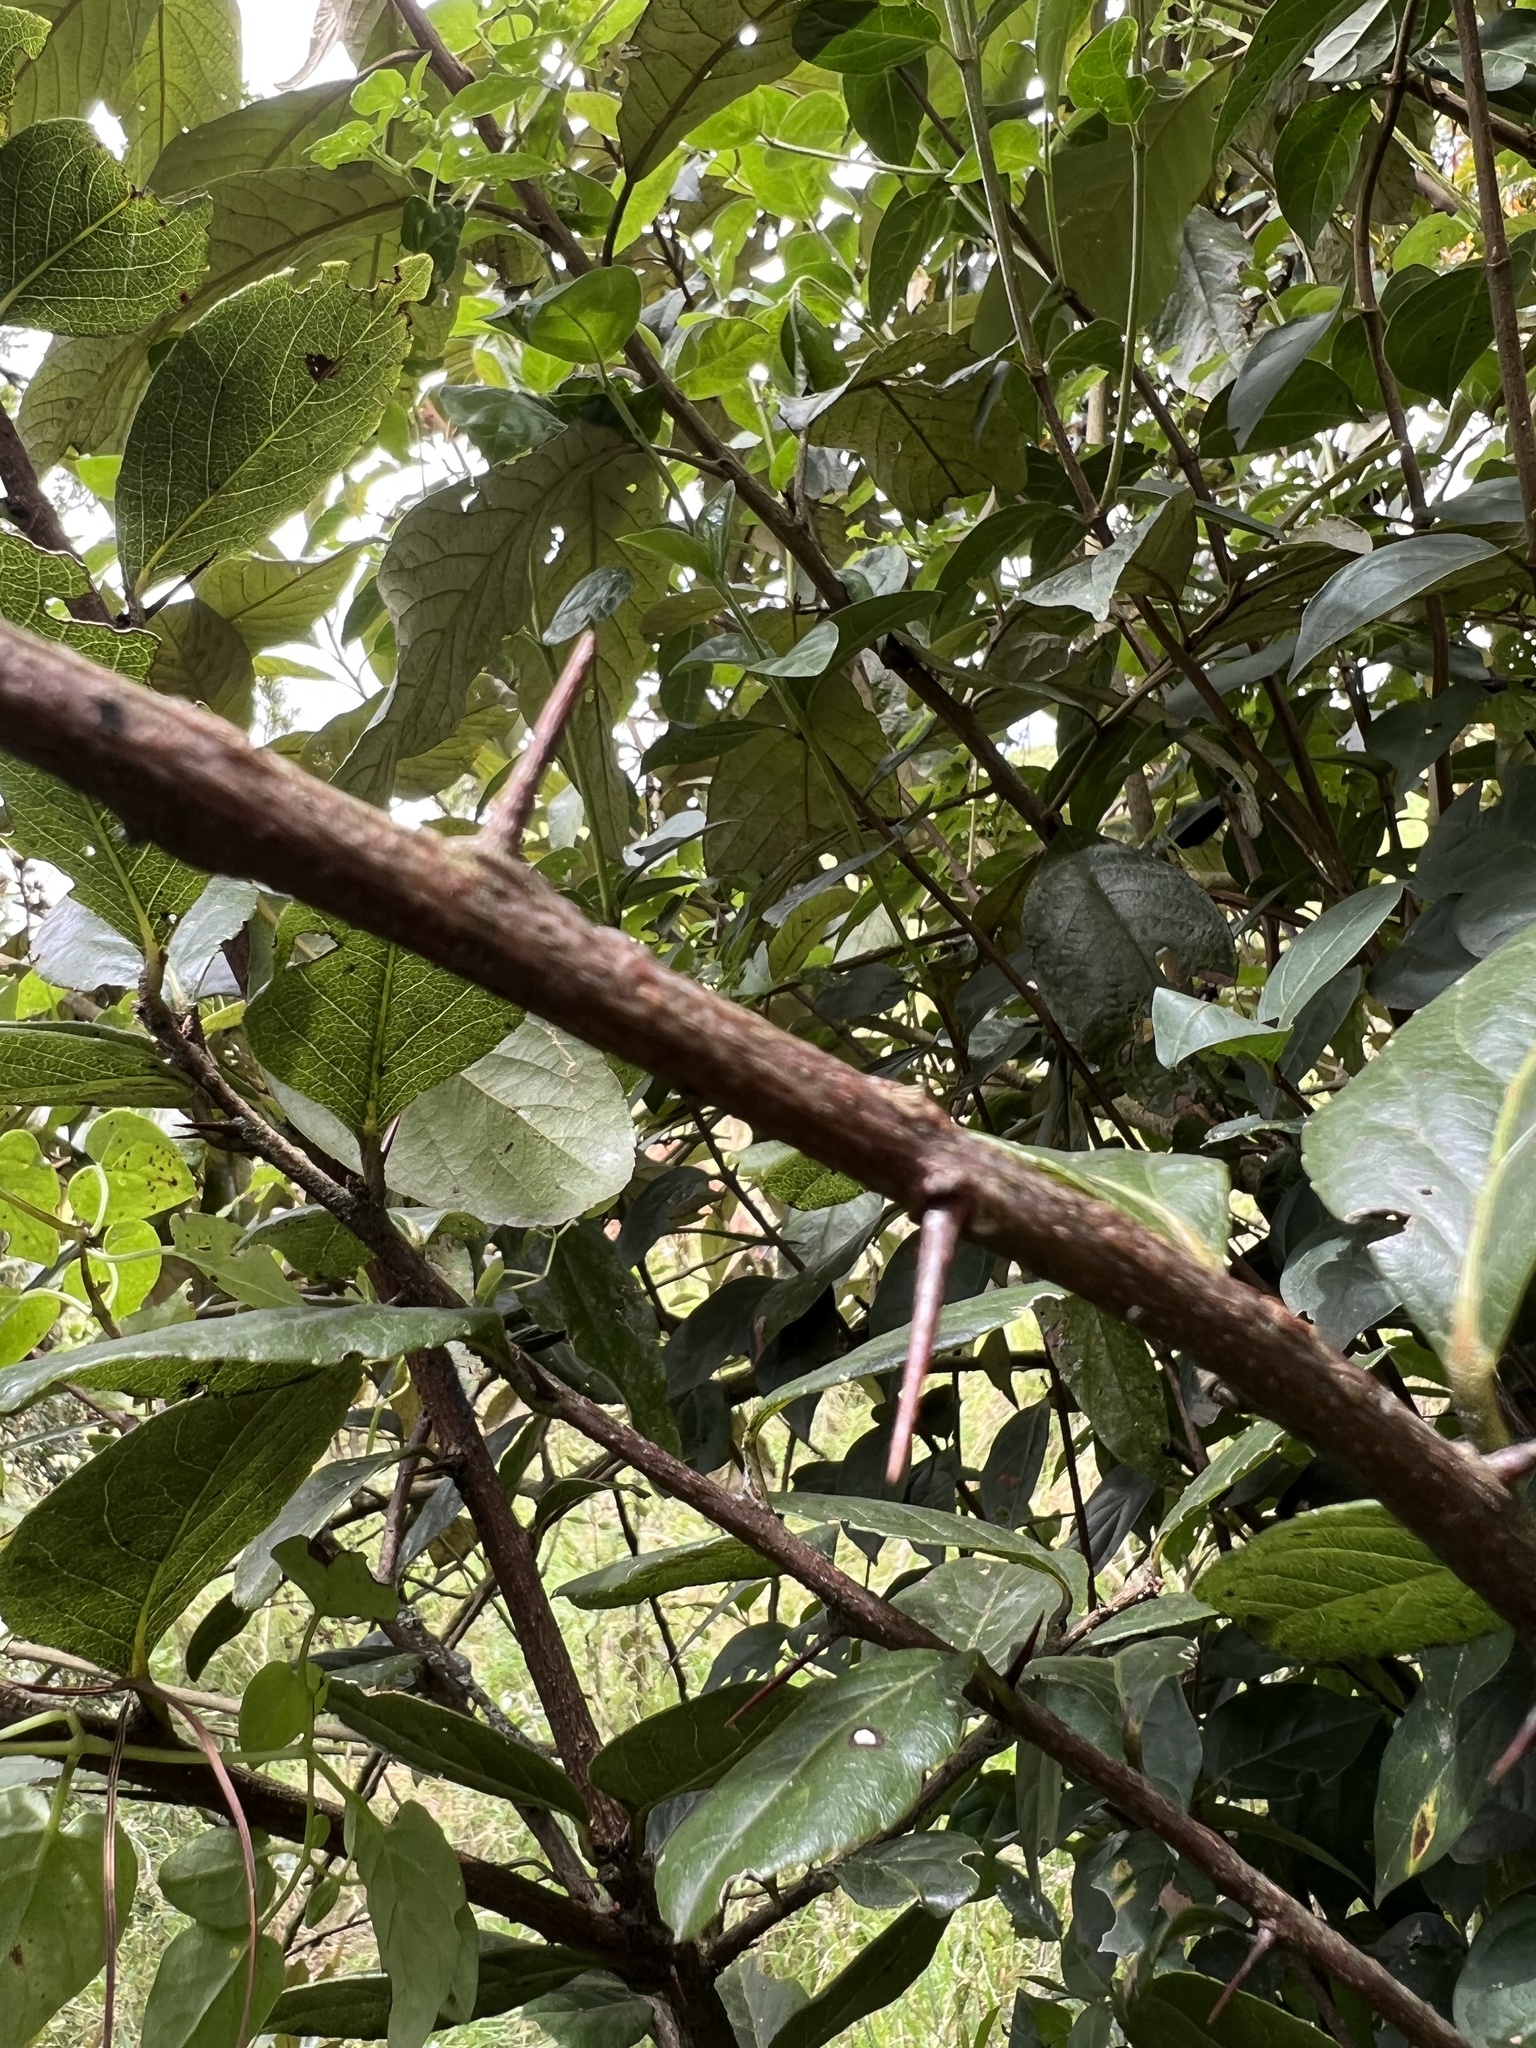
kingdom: Plantae
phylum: Tracheophyta
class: Magnoliopsida
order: Malpighiales
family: Salicaceae
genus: Xylosma
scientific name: Xylosma spiculifera
